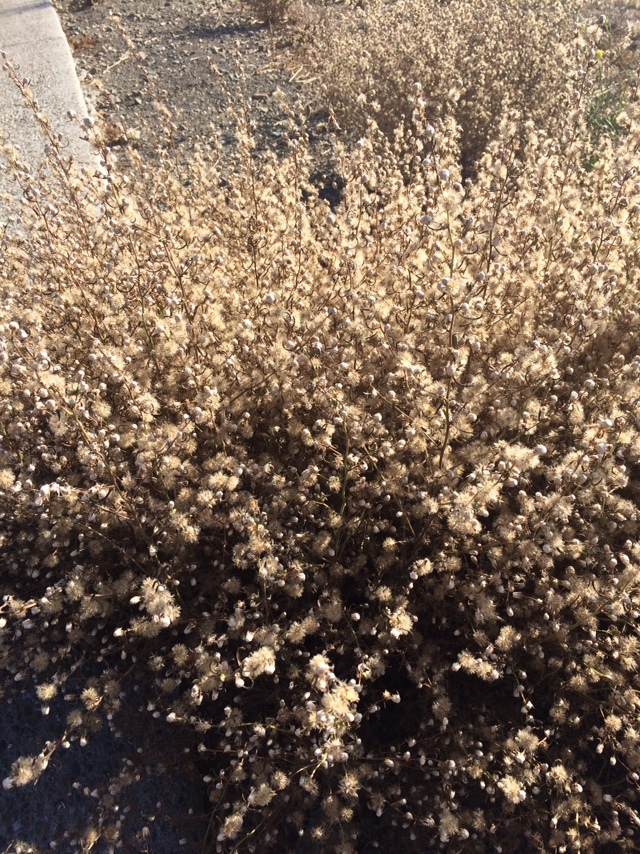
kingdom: Plantae
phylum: Tracheophyta
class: Magnoliopsida
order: Asterales
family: Asteraceae
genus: Dittrichia
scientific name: Dittrichia graveolens
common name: Stinking fleabane
